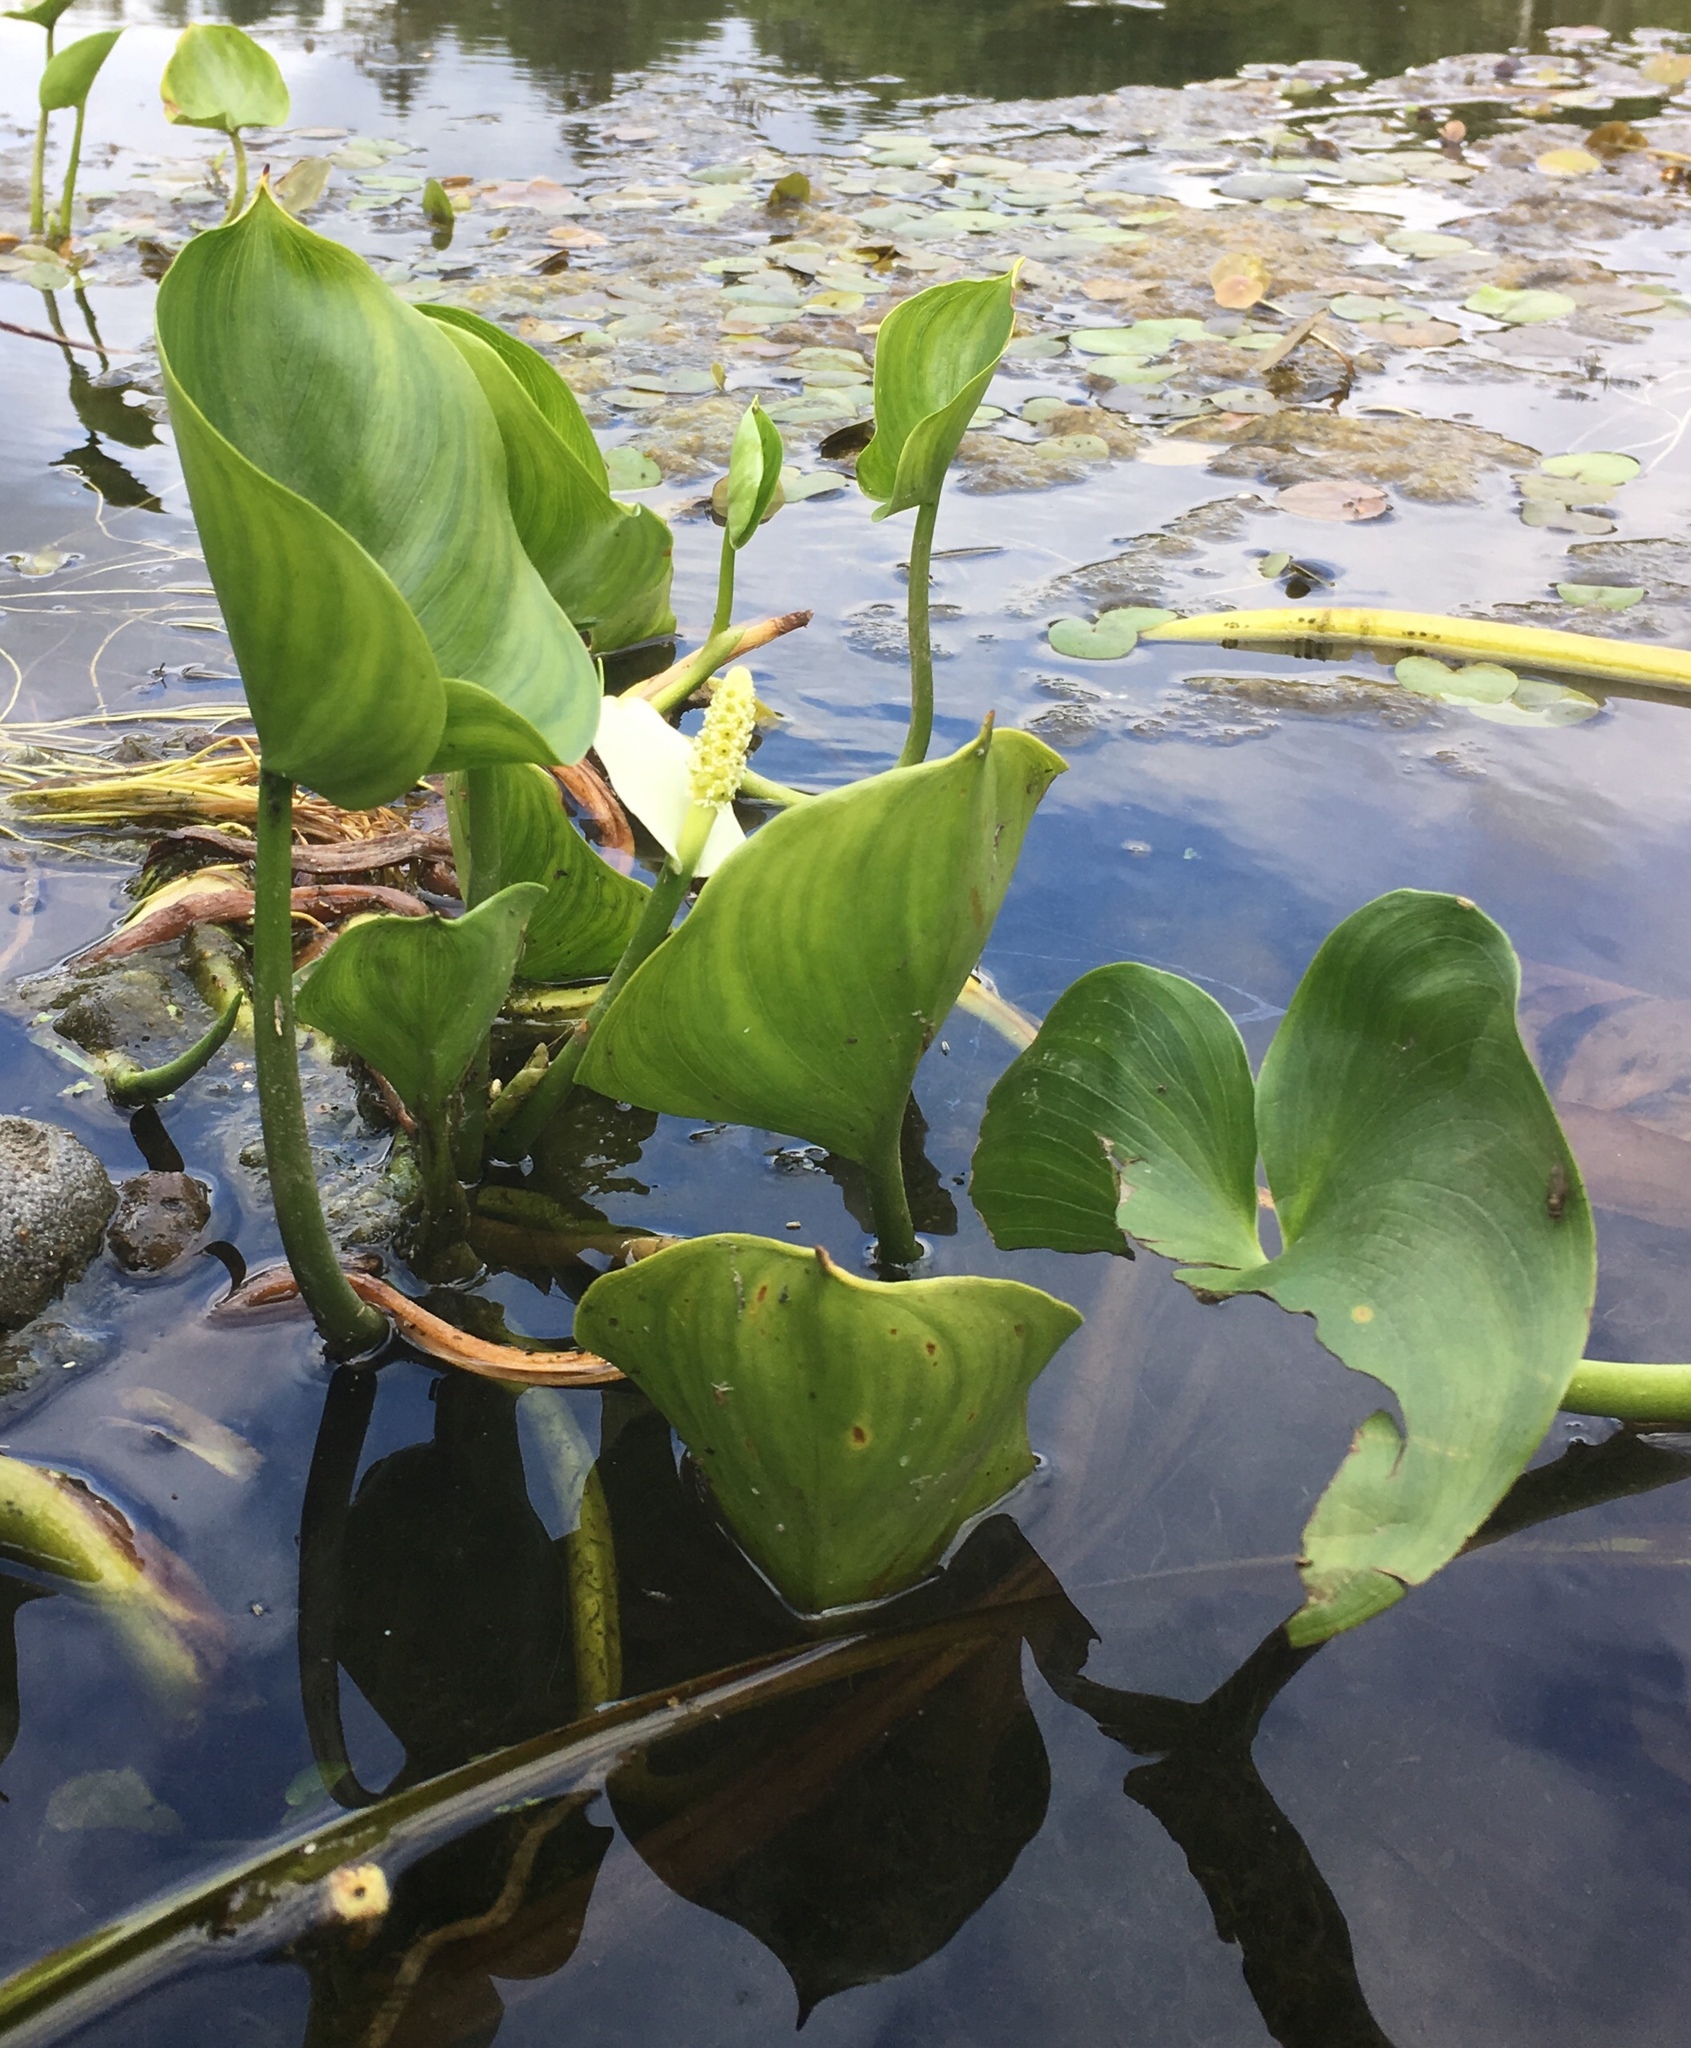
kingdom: Plantae
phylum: Tracheophyta
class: Liliopsida
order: Alismatales
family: Araceae
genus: Calla
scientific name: Calla palustris
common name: Bog arum
